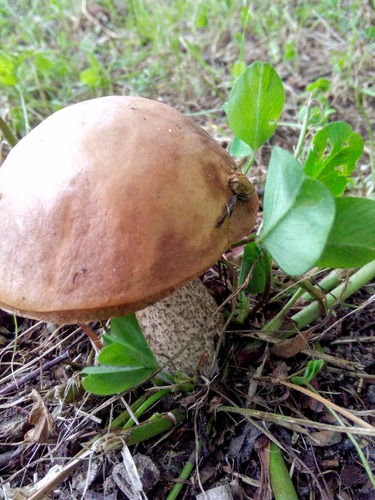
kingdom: Fungi
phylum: Basidiomycota
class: Agaricomycetes
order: Boletales
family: Boletaceae
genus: Leccinum
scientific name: Leccinum scabrum
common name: Blushing bolete
